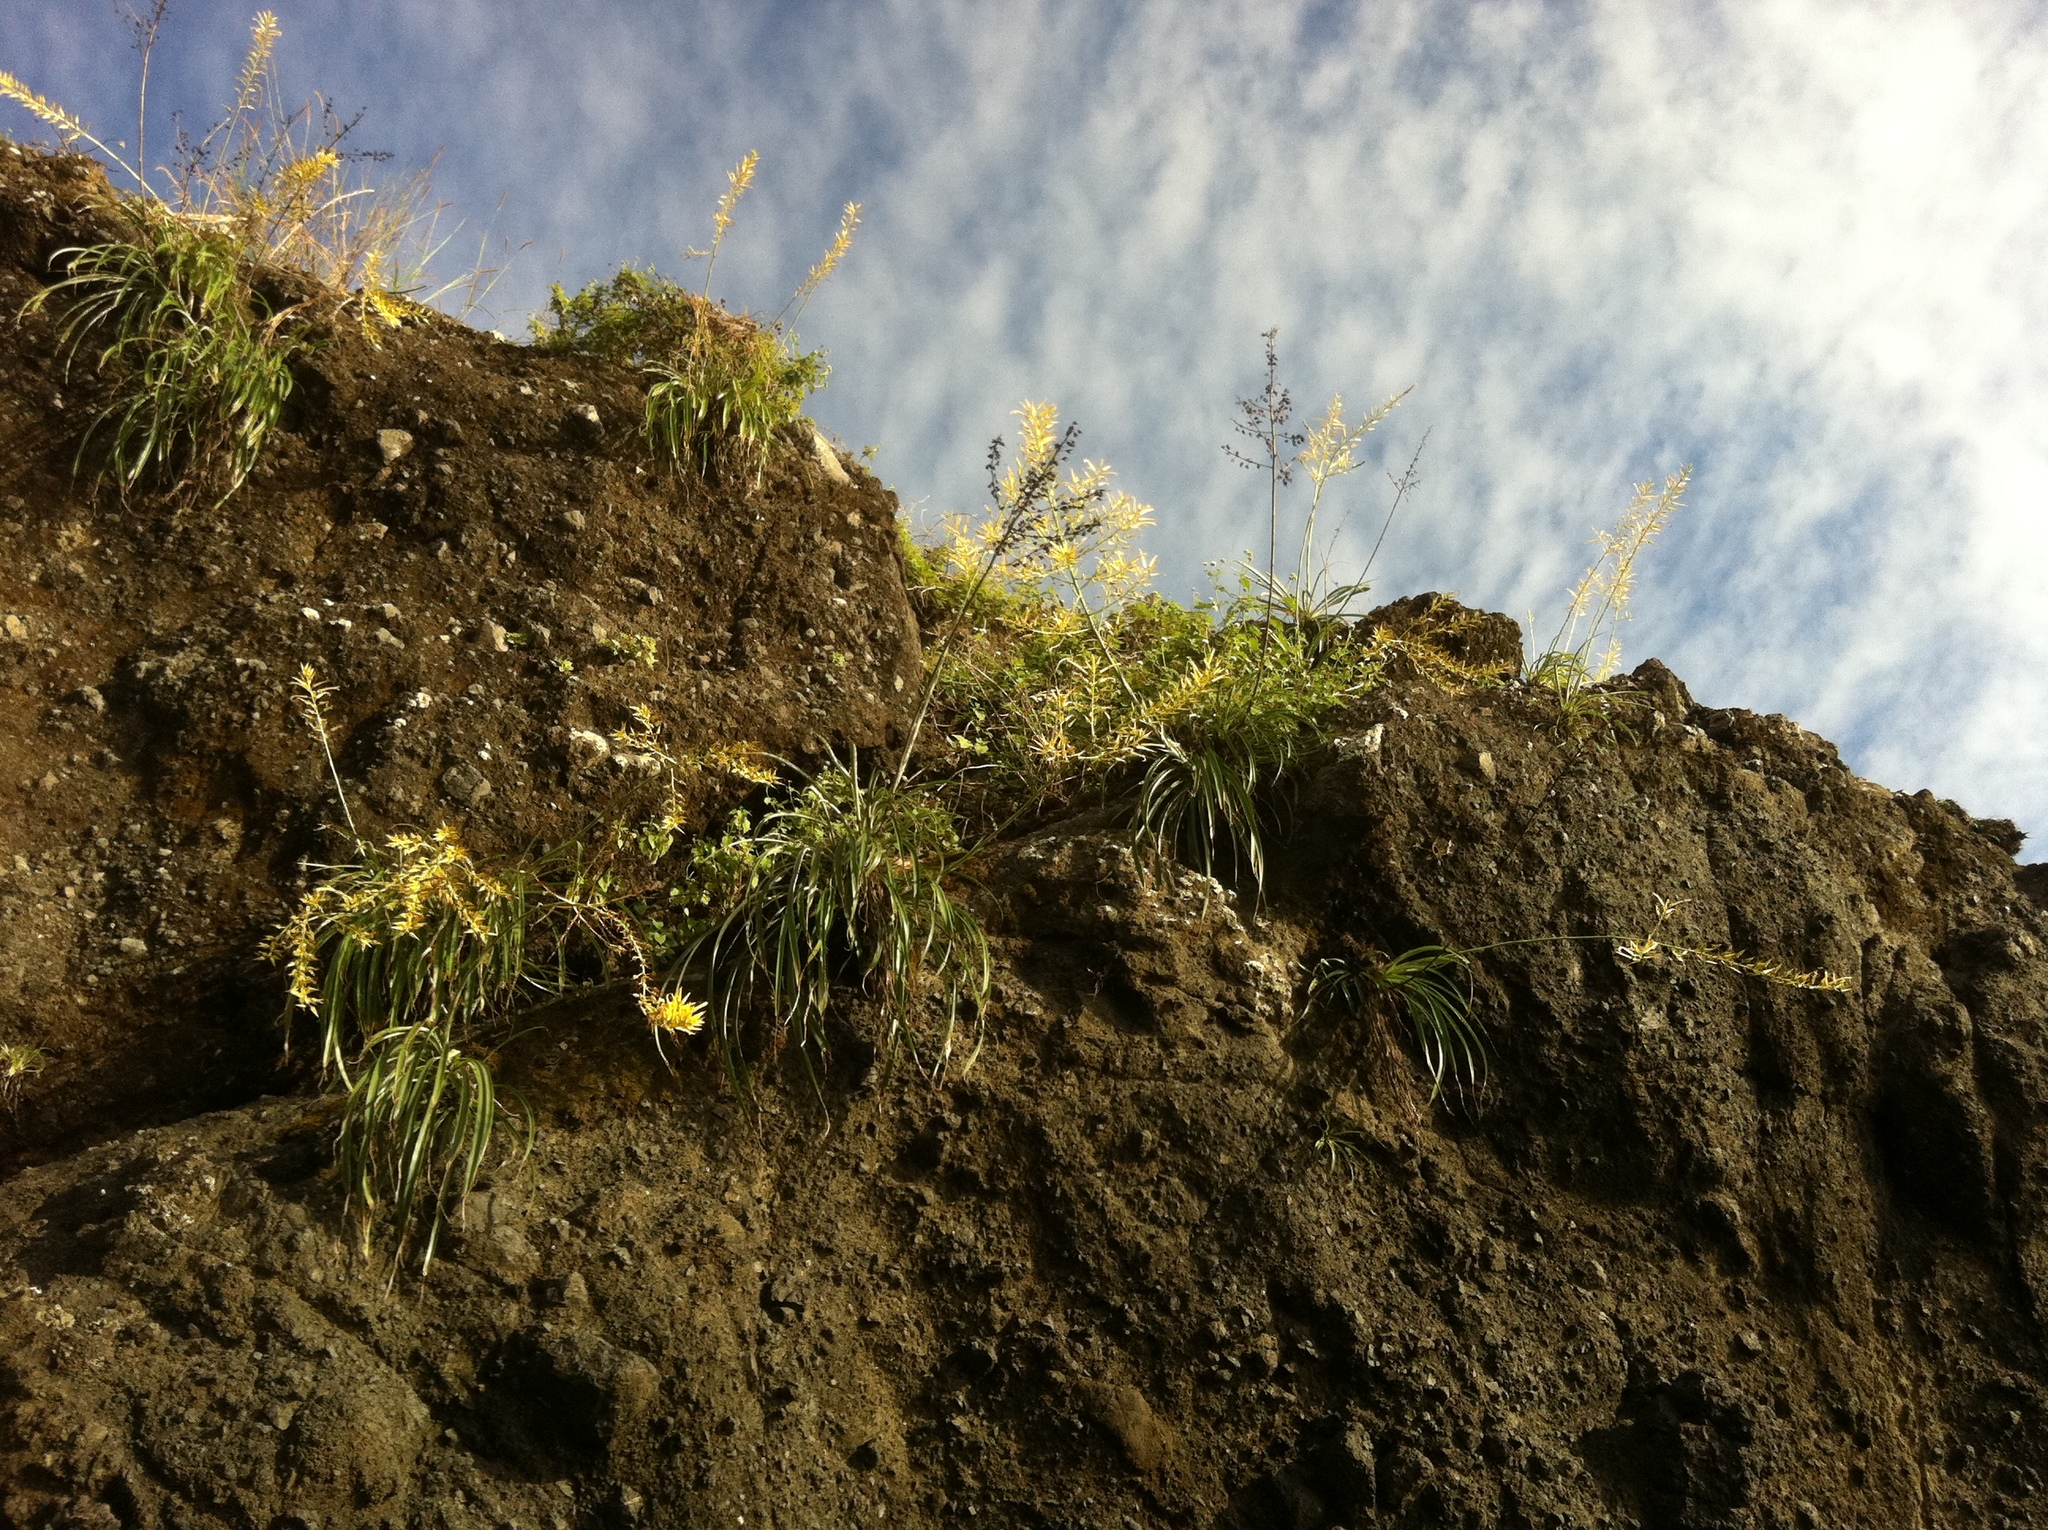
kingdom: Plantae
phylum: Tracheophyta
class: Liliopsida
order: Poales
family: Bromeliaceae
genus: Pitcairnia
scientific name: Pitcairnia halophila
